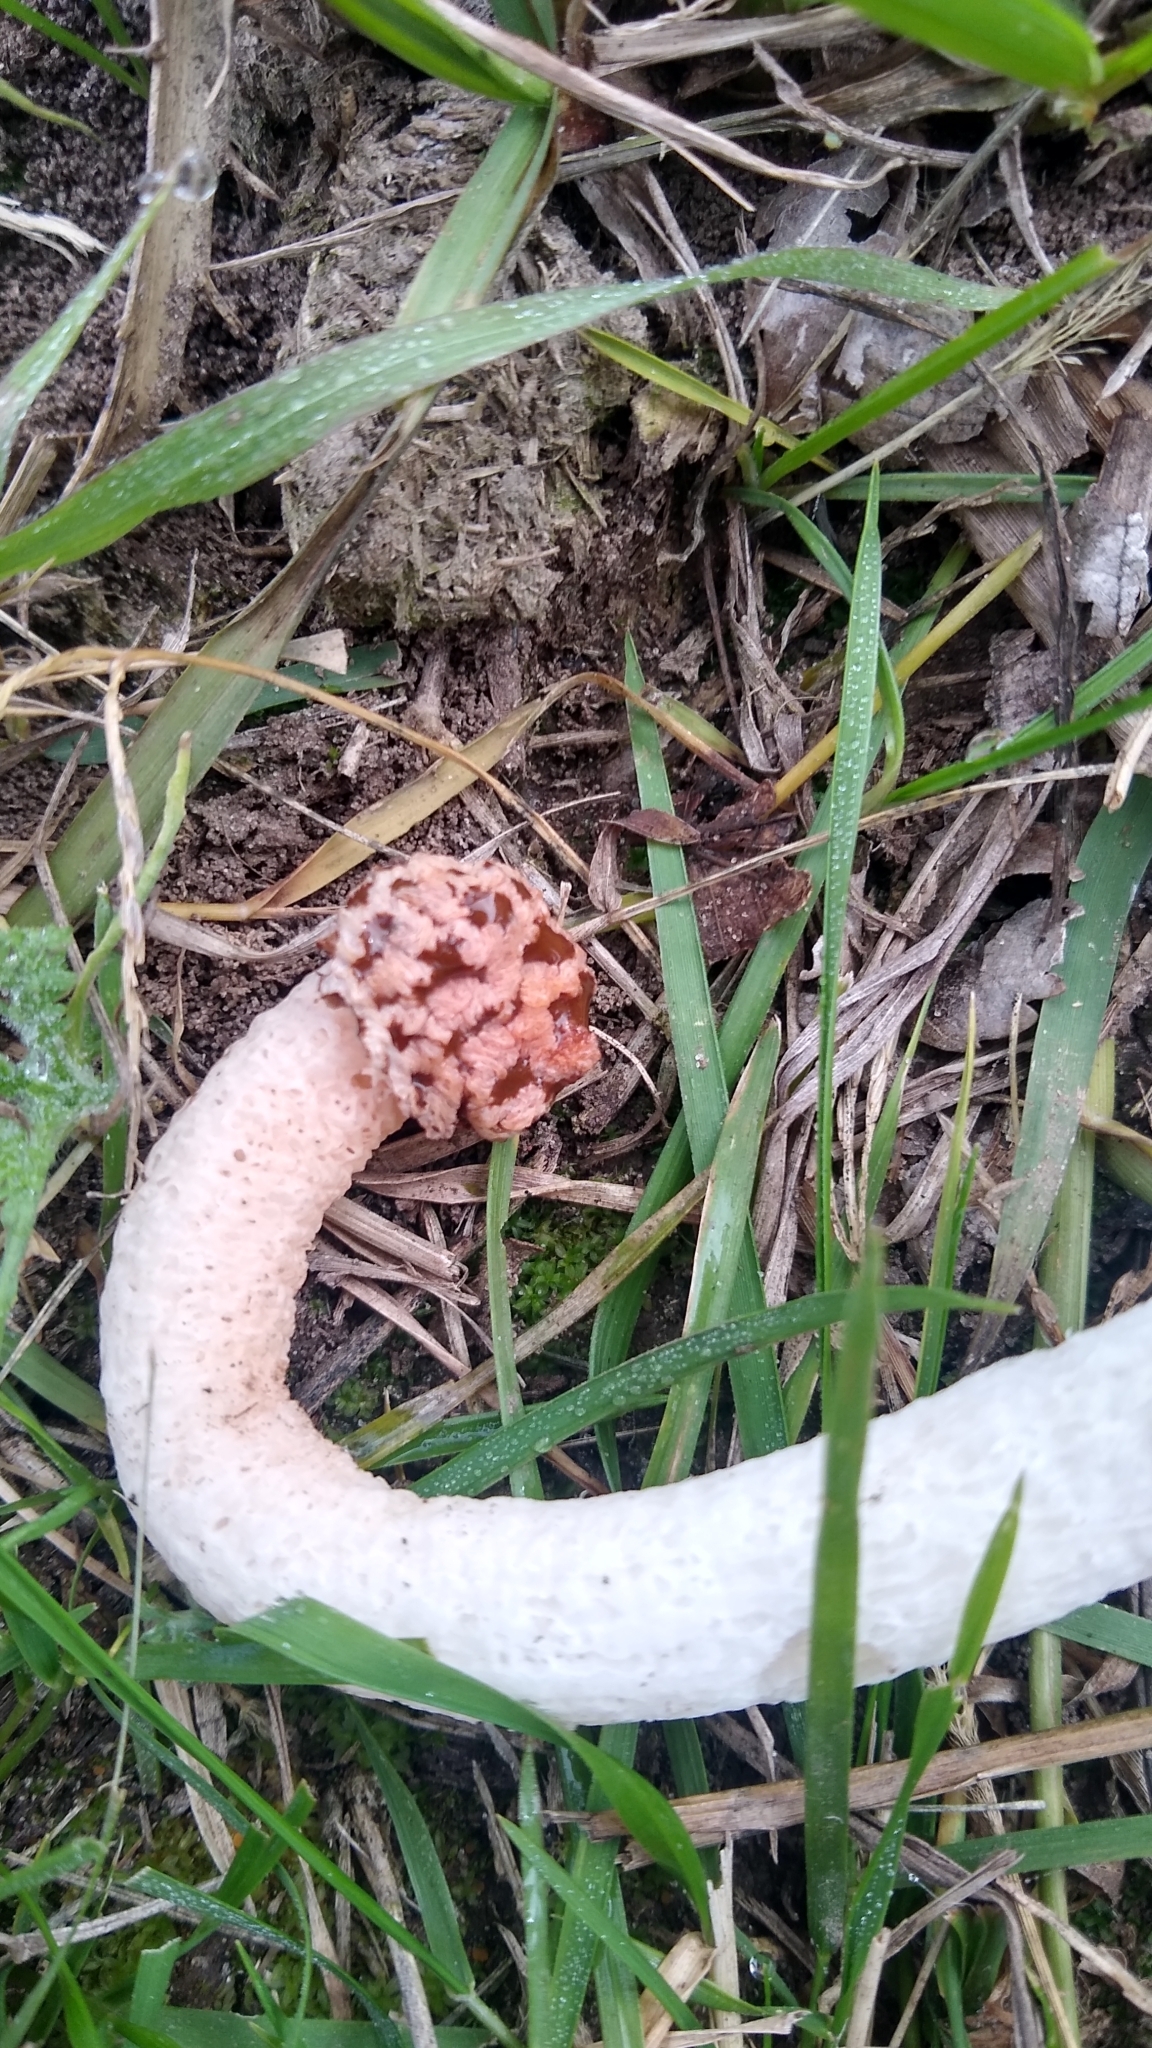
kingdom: Fungi
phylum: Basidiomycota
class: Agaricomycetes
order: Phallales
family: Phallaceae
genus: Lysurus
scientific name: Lysurus periphragmoides
